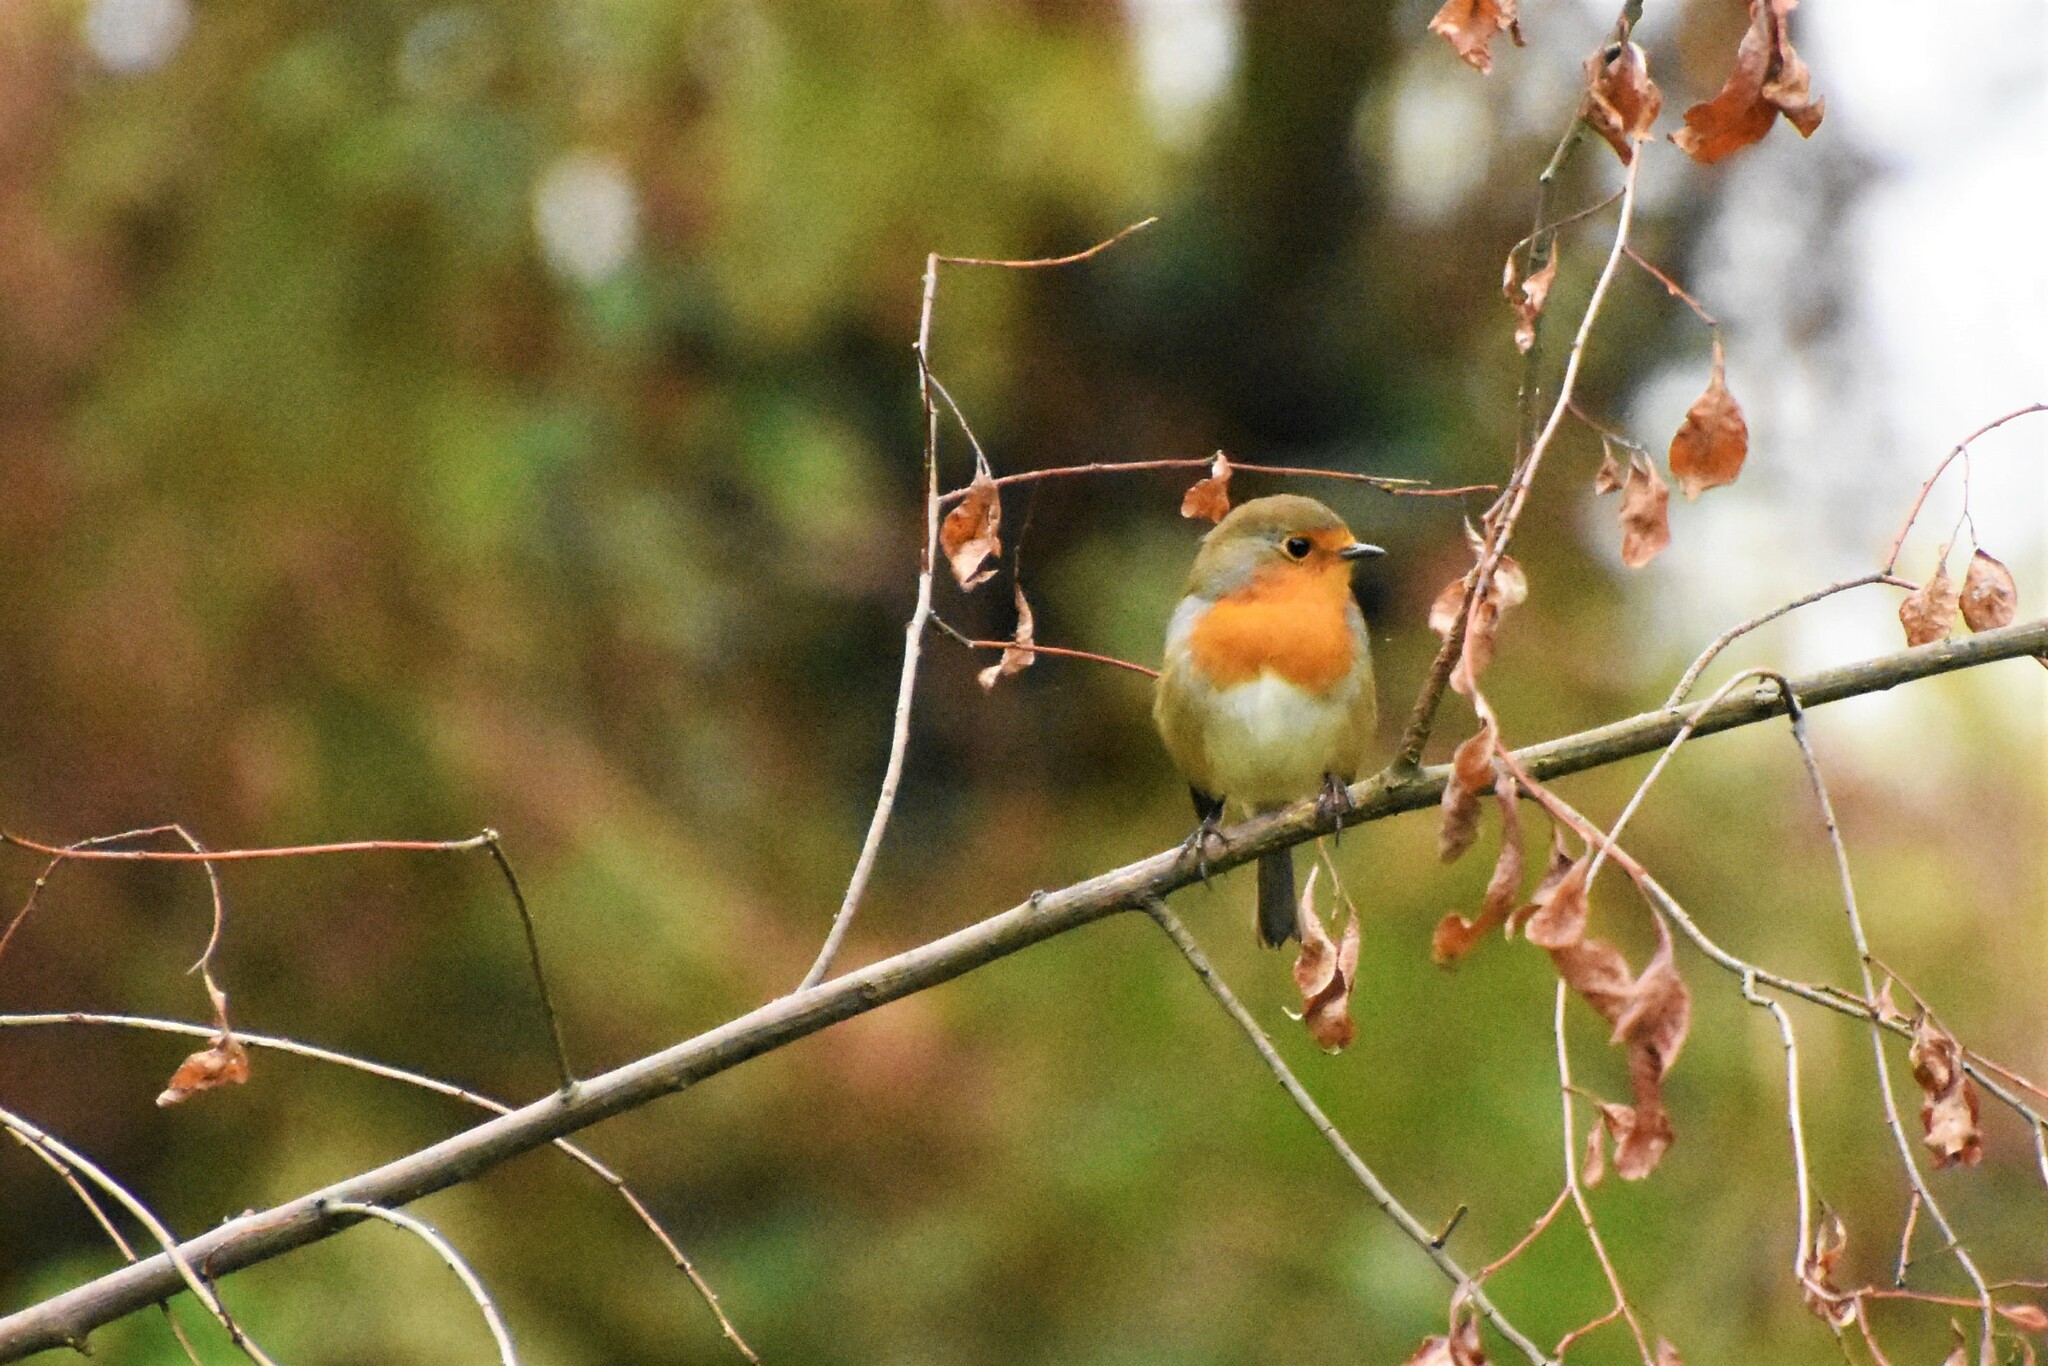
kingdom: Animalia
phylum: Chordata
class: Aves
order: Passeriformes
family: Muscicapidae
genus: Erithacus
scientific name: Erithacus rubecula
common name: European robin
